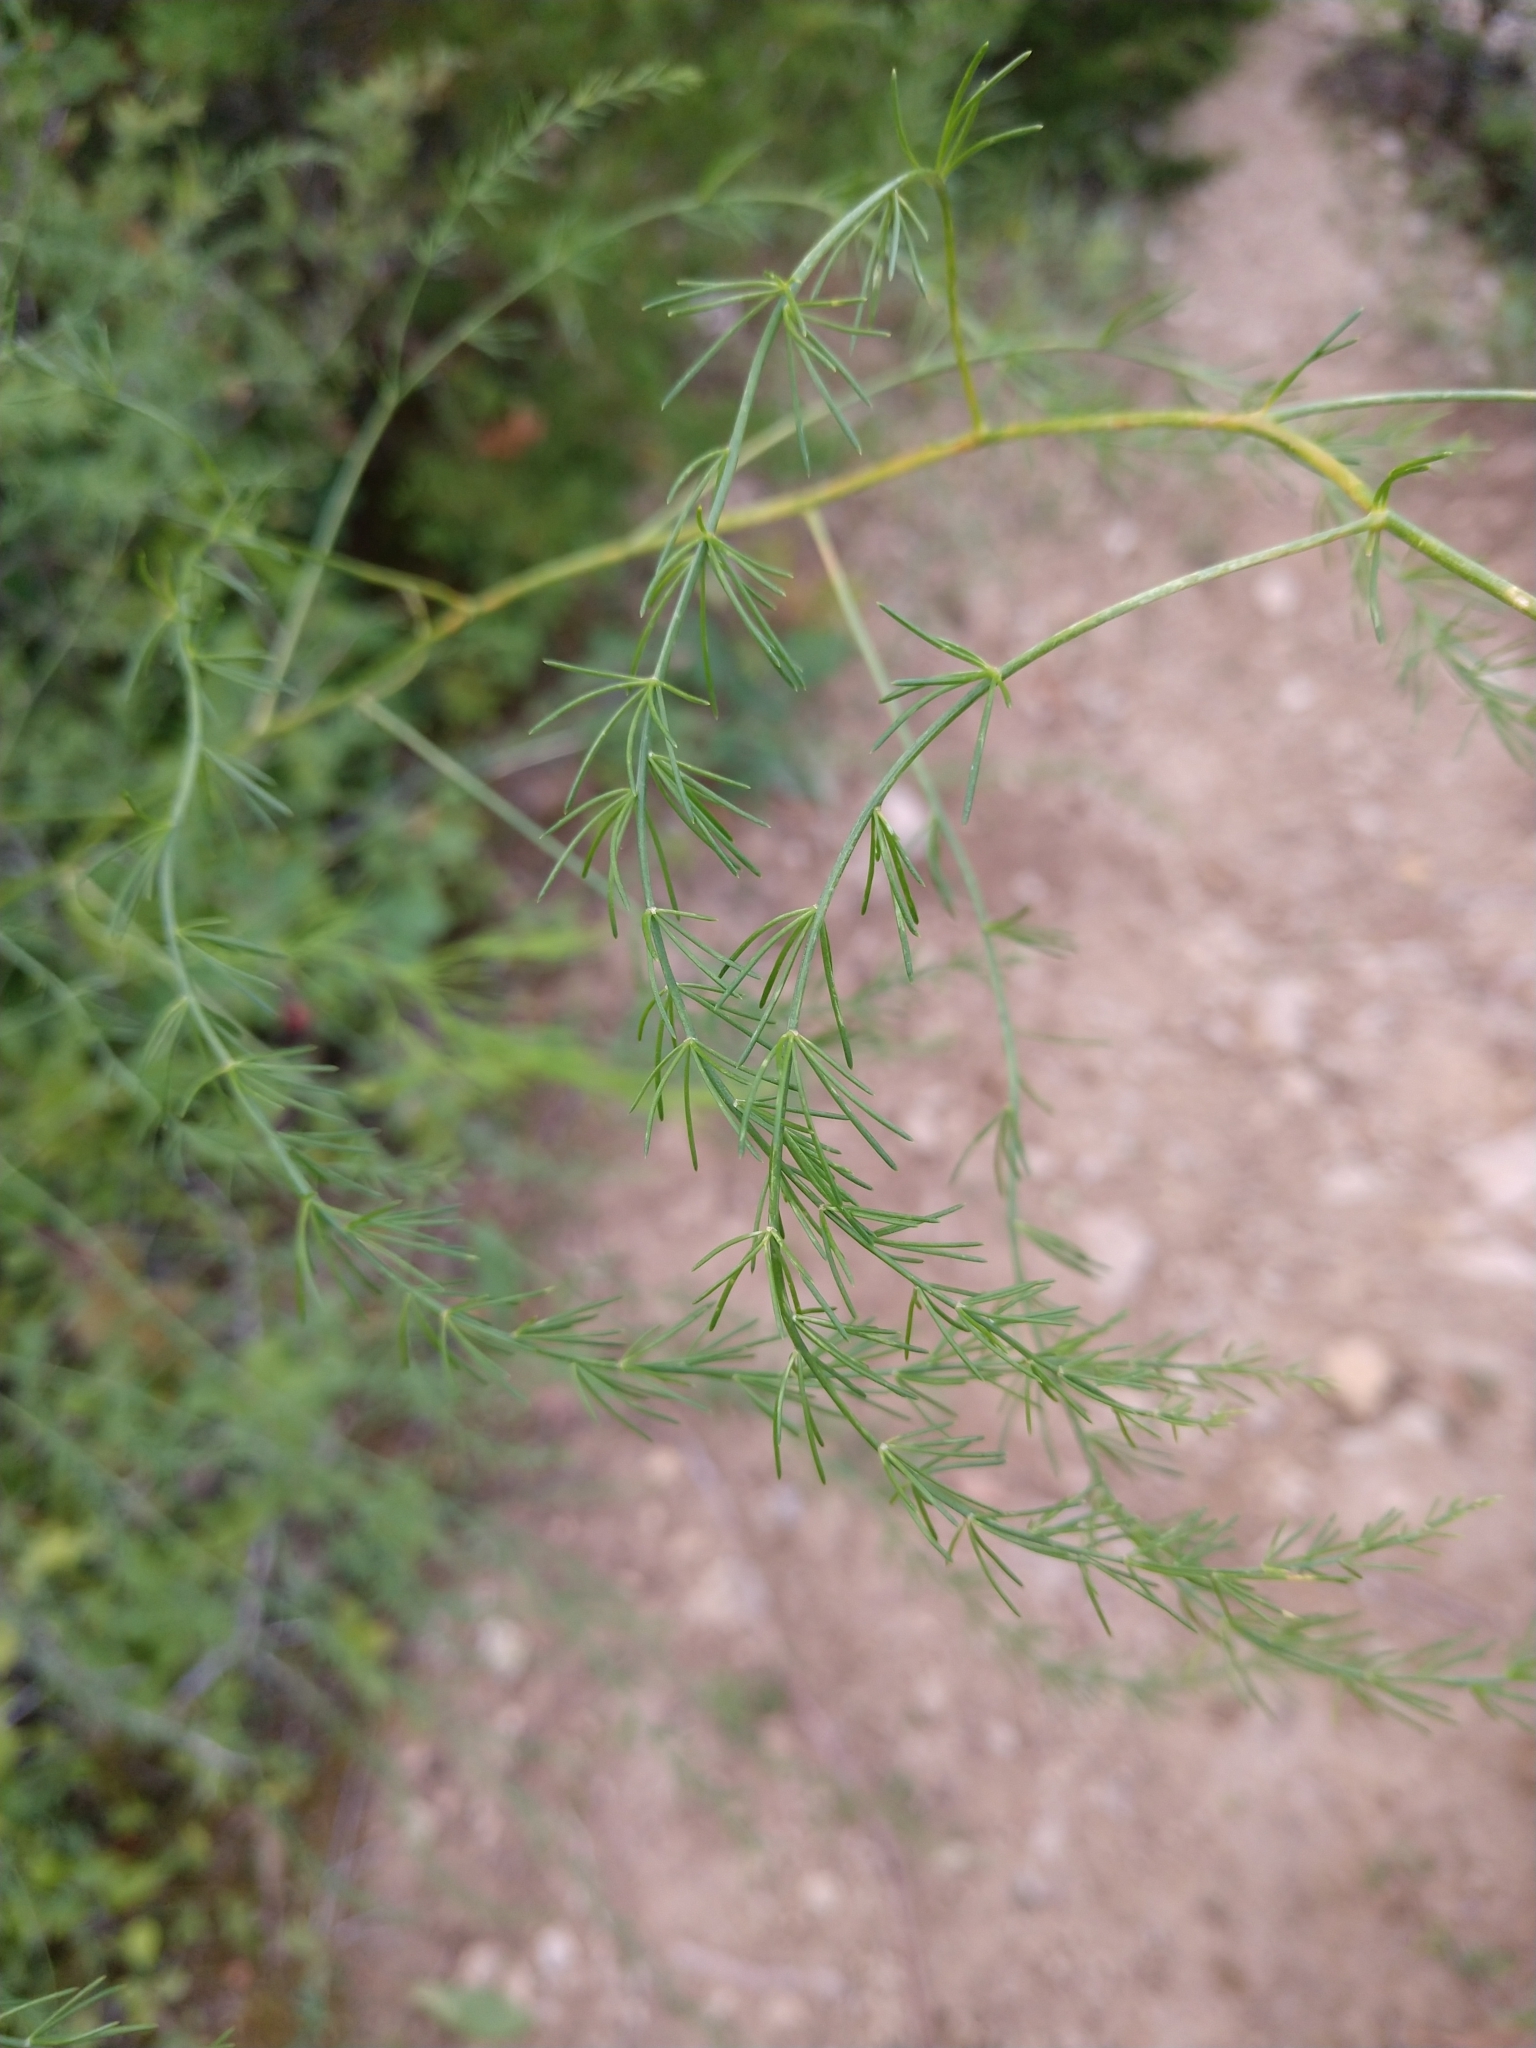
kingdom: Plantae
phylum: Tracheophyta
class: Liliopsida
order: Asparagales
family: Asparagaceae
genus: Asparagus
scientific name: Asparagus officinalis
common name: Garden asparagus
